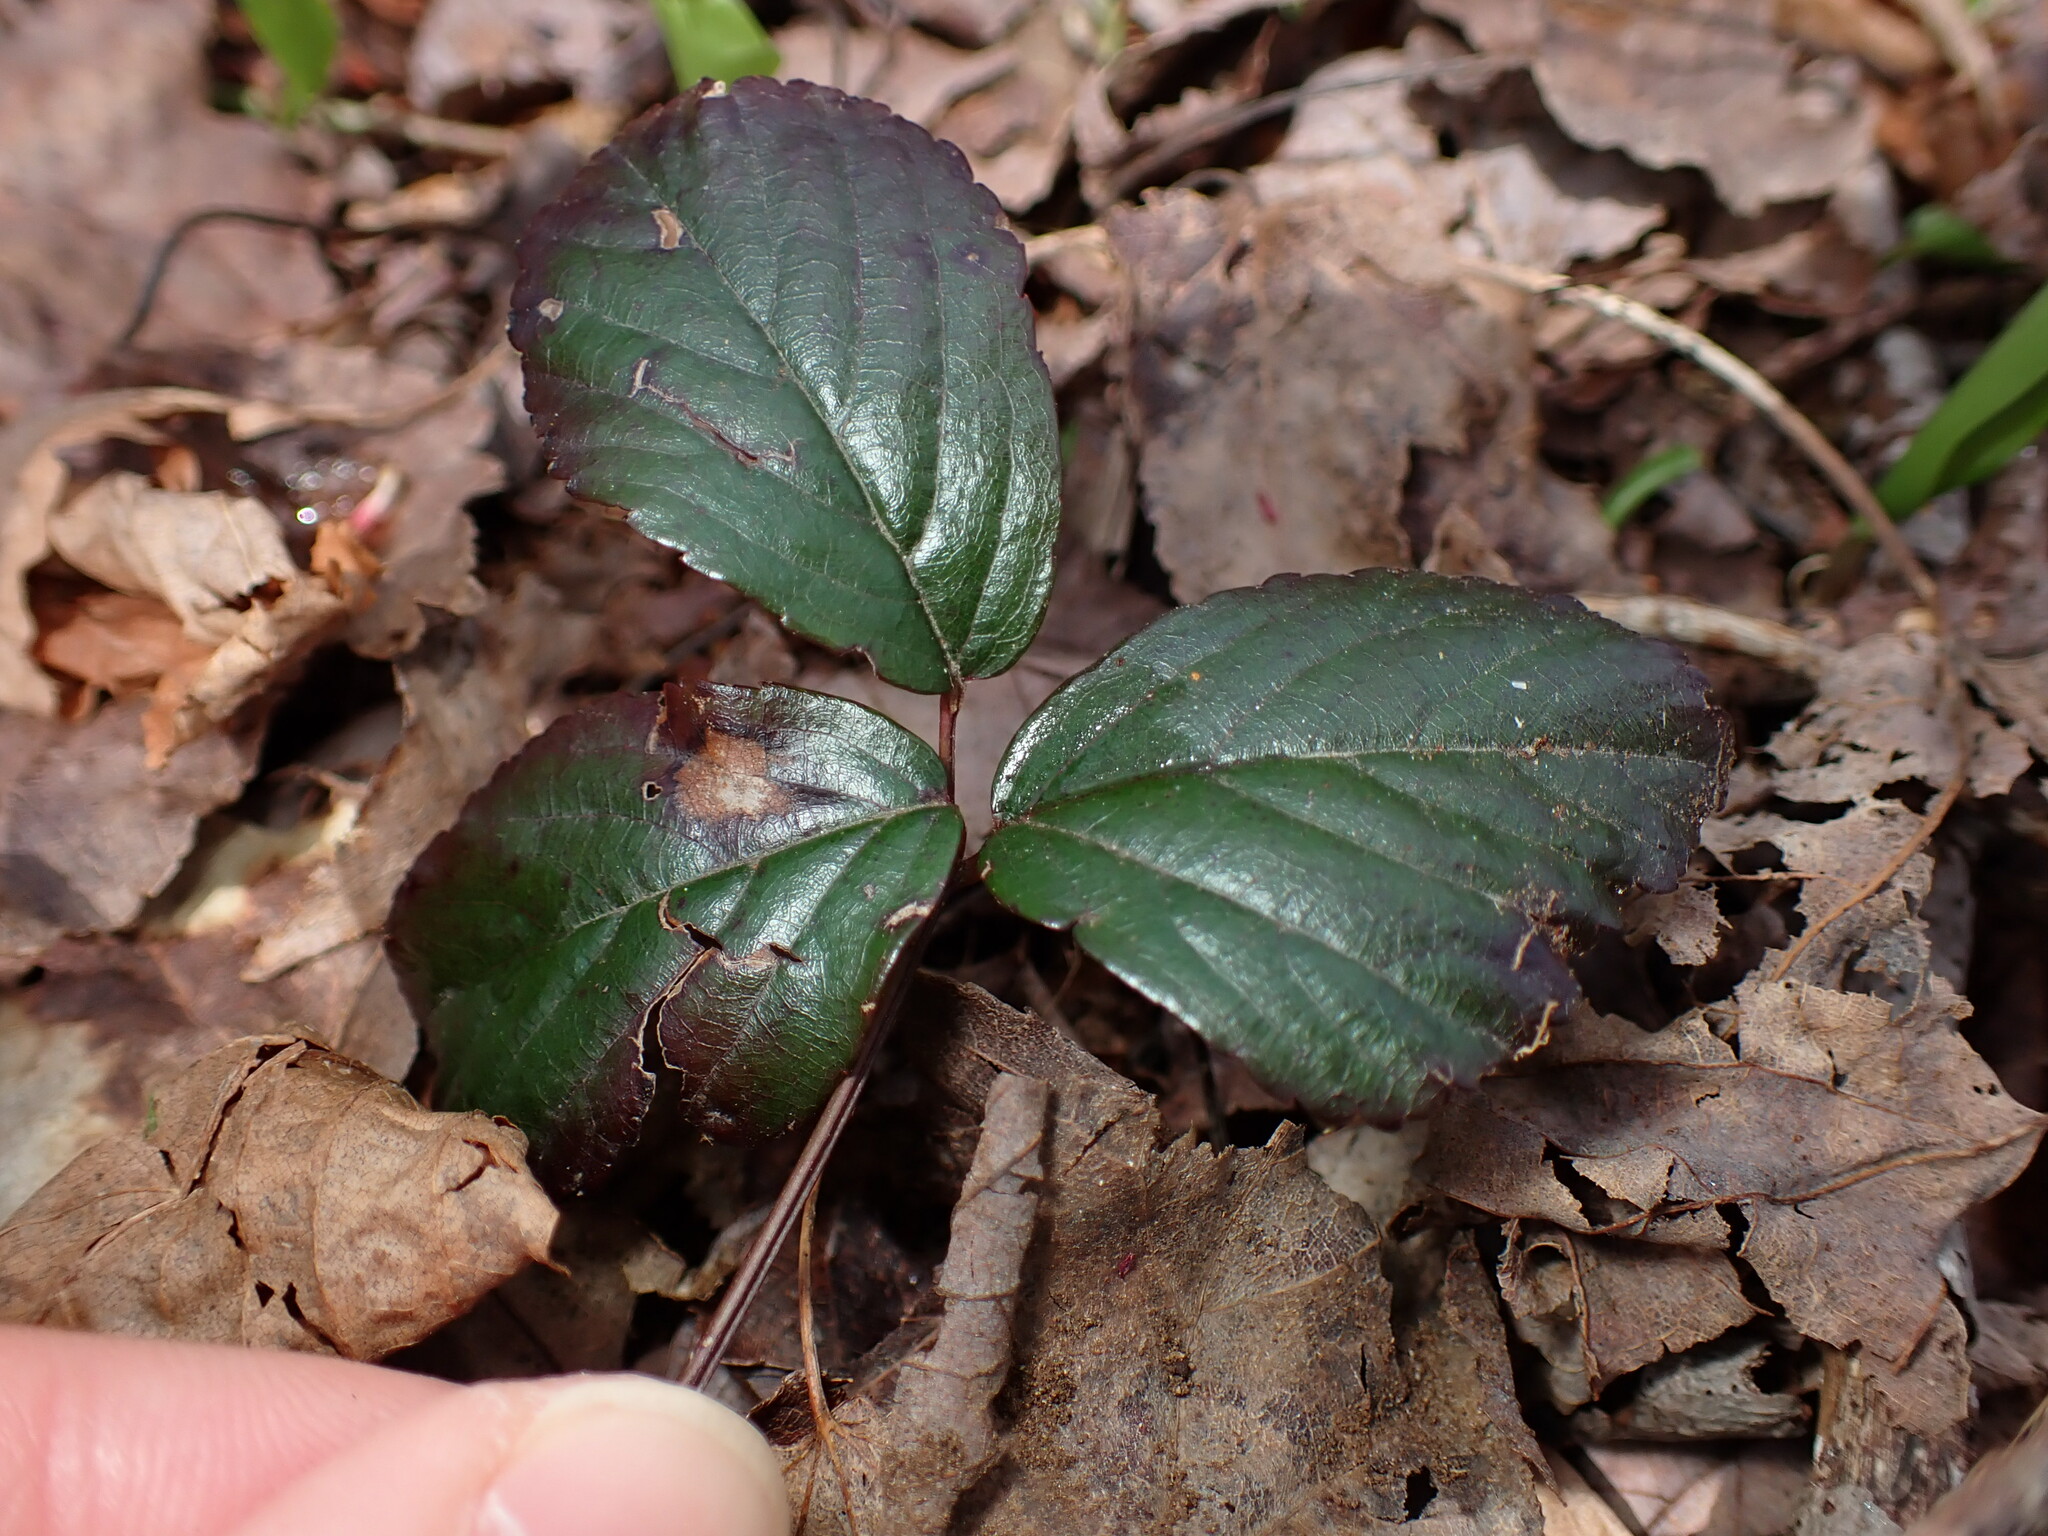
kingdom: Plantae
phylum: Tracheophyta
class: Magnoliopsida
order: Rosales
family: Rosaceae
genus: Rubus
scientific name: Rubus hispidus
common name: Running blackberry
